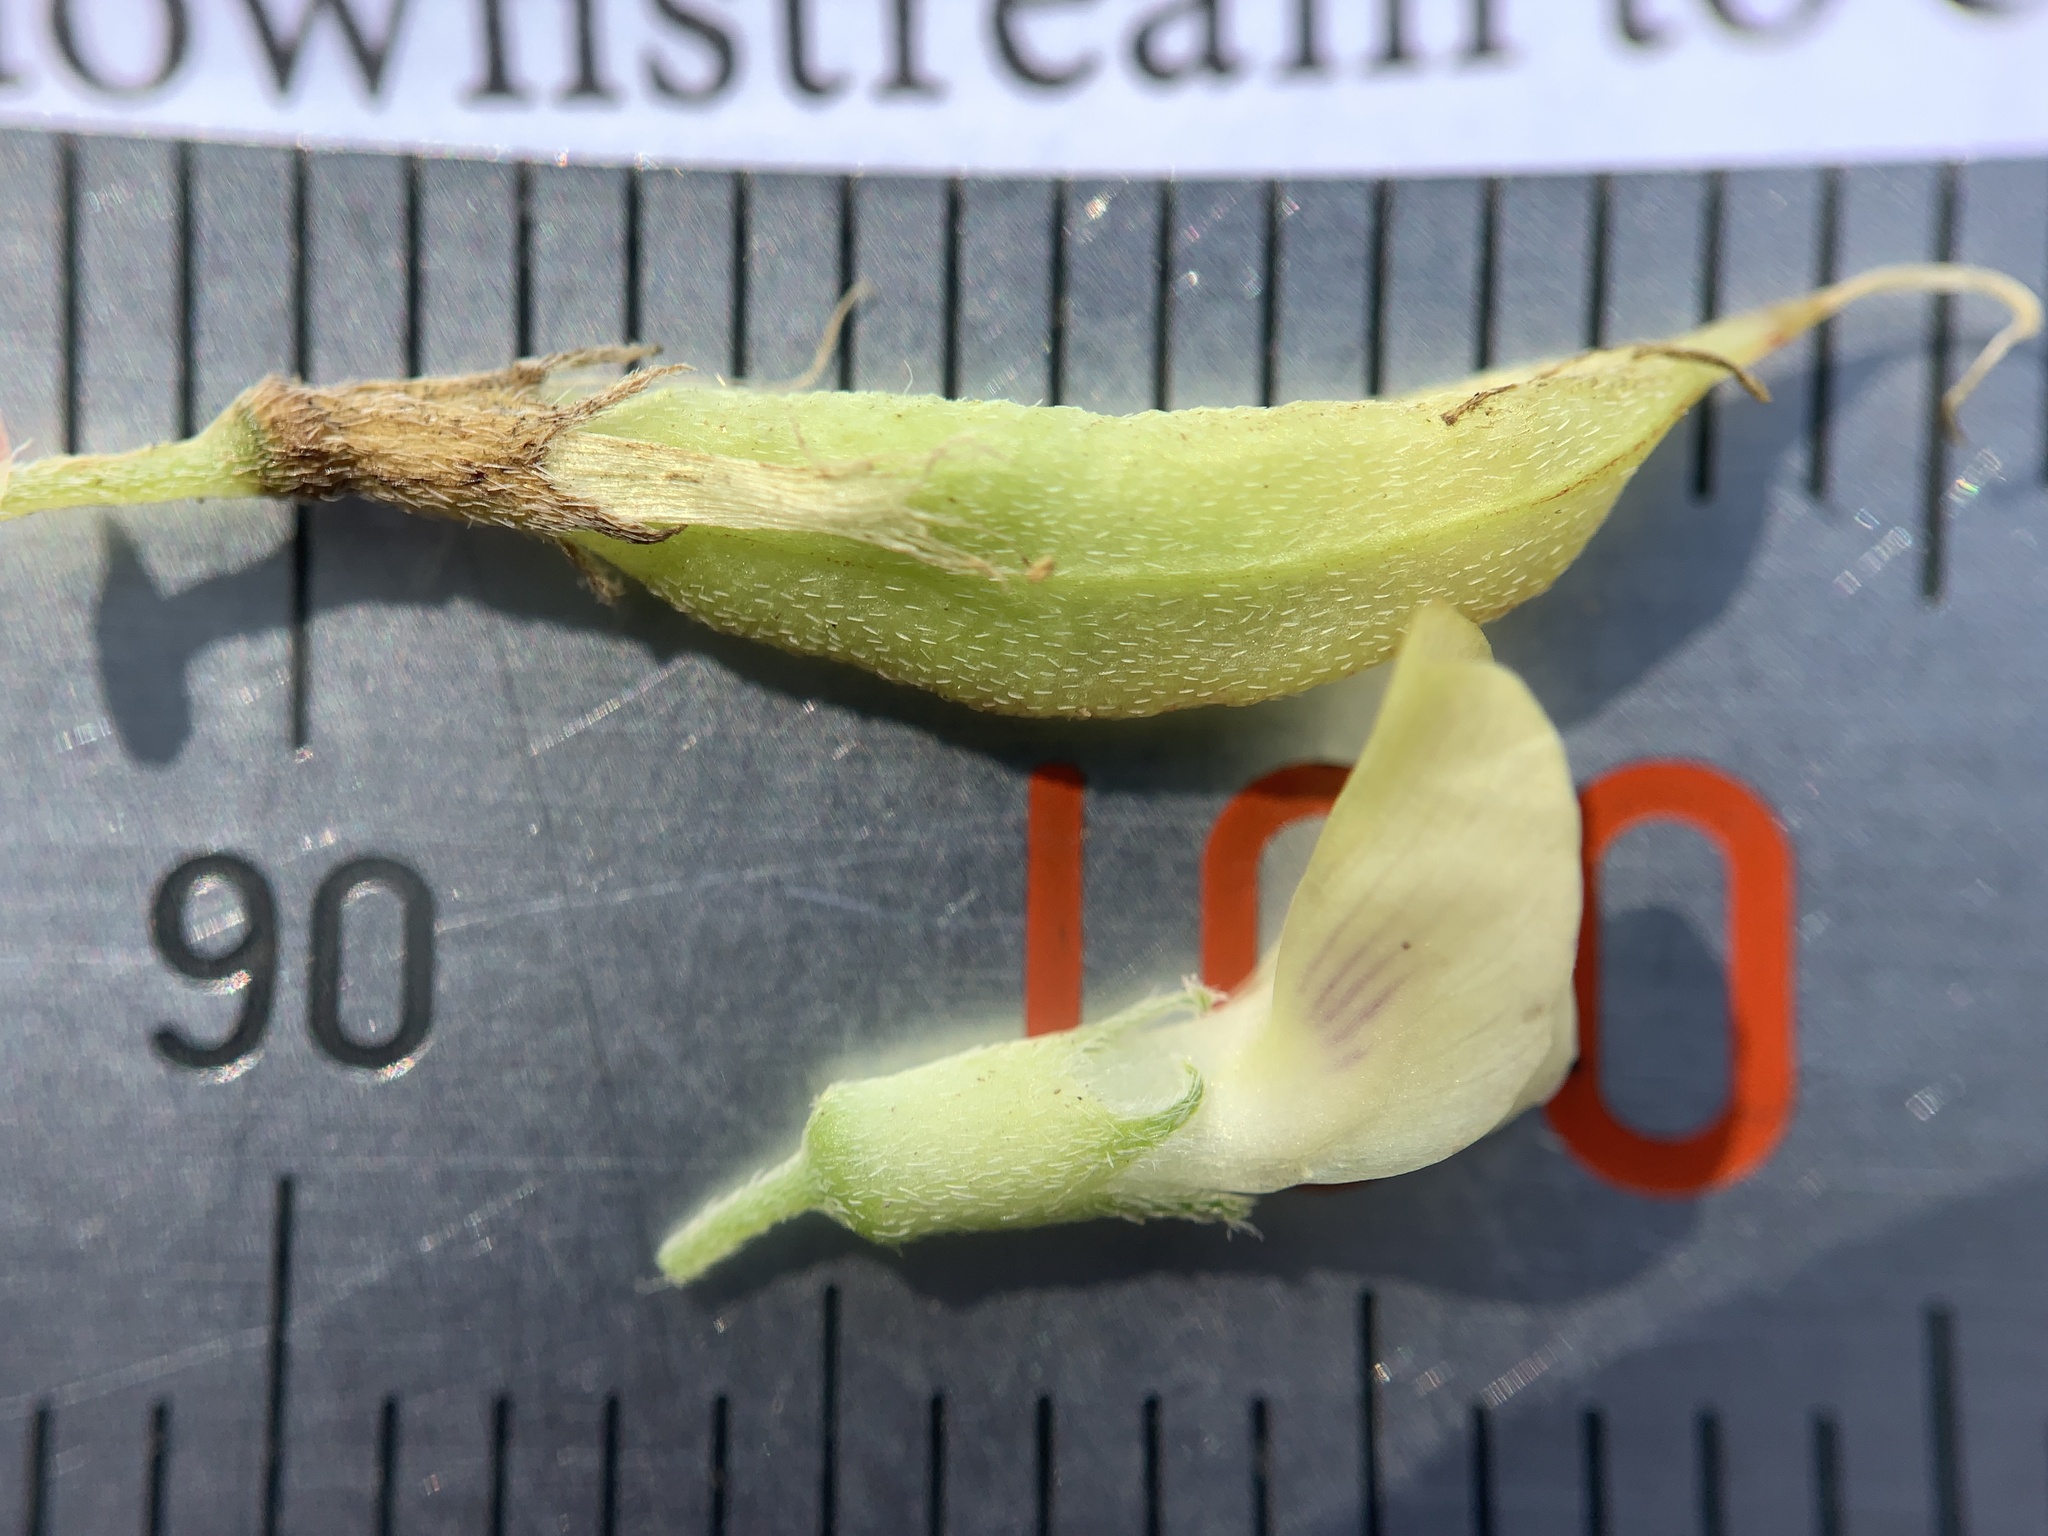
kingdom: Plantae
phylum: Tracheophyta
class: Magnoliopsida
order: Fabales
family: Fabaceae
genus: Astragalus
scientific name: Astragalus leptaleus
